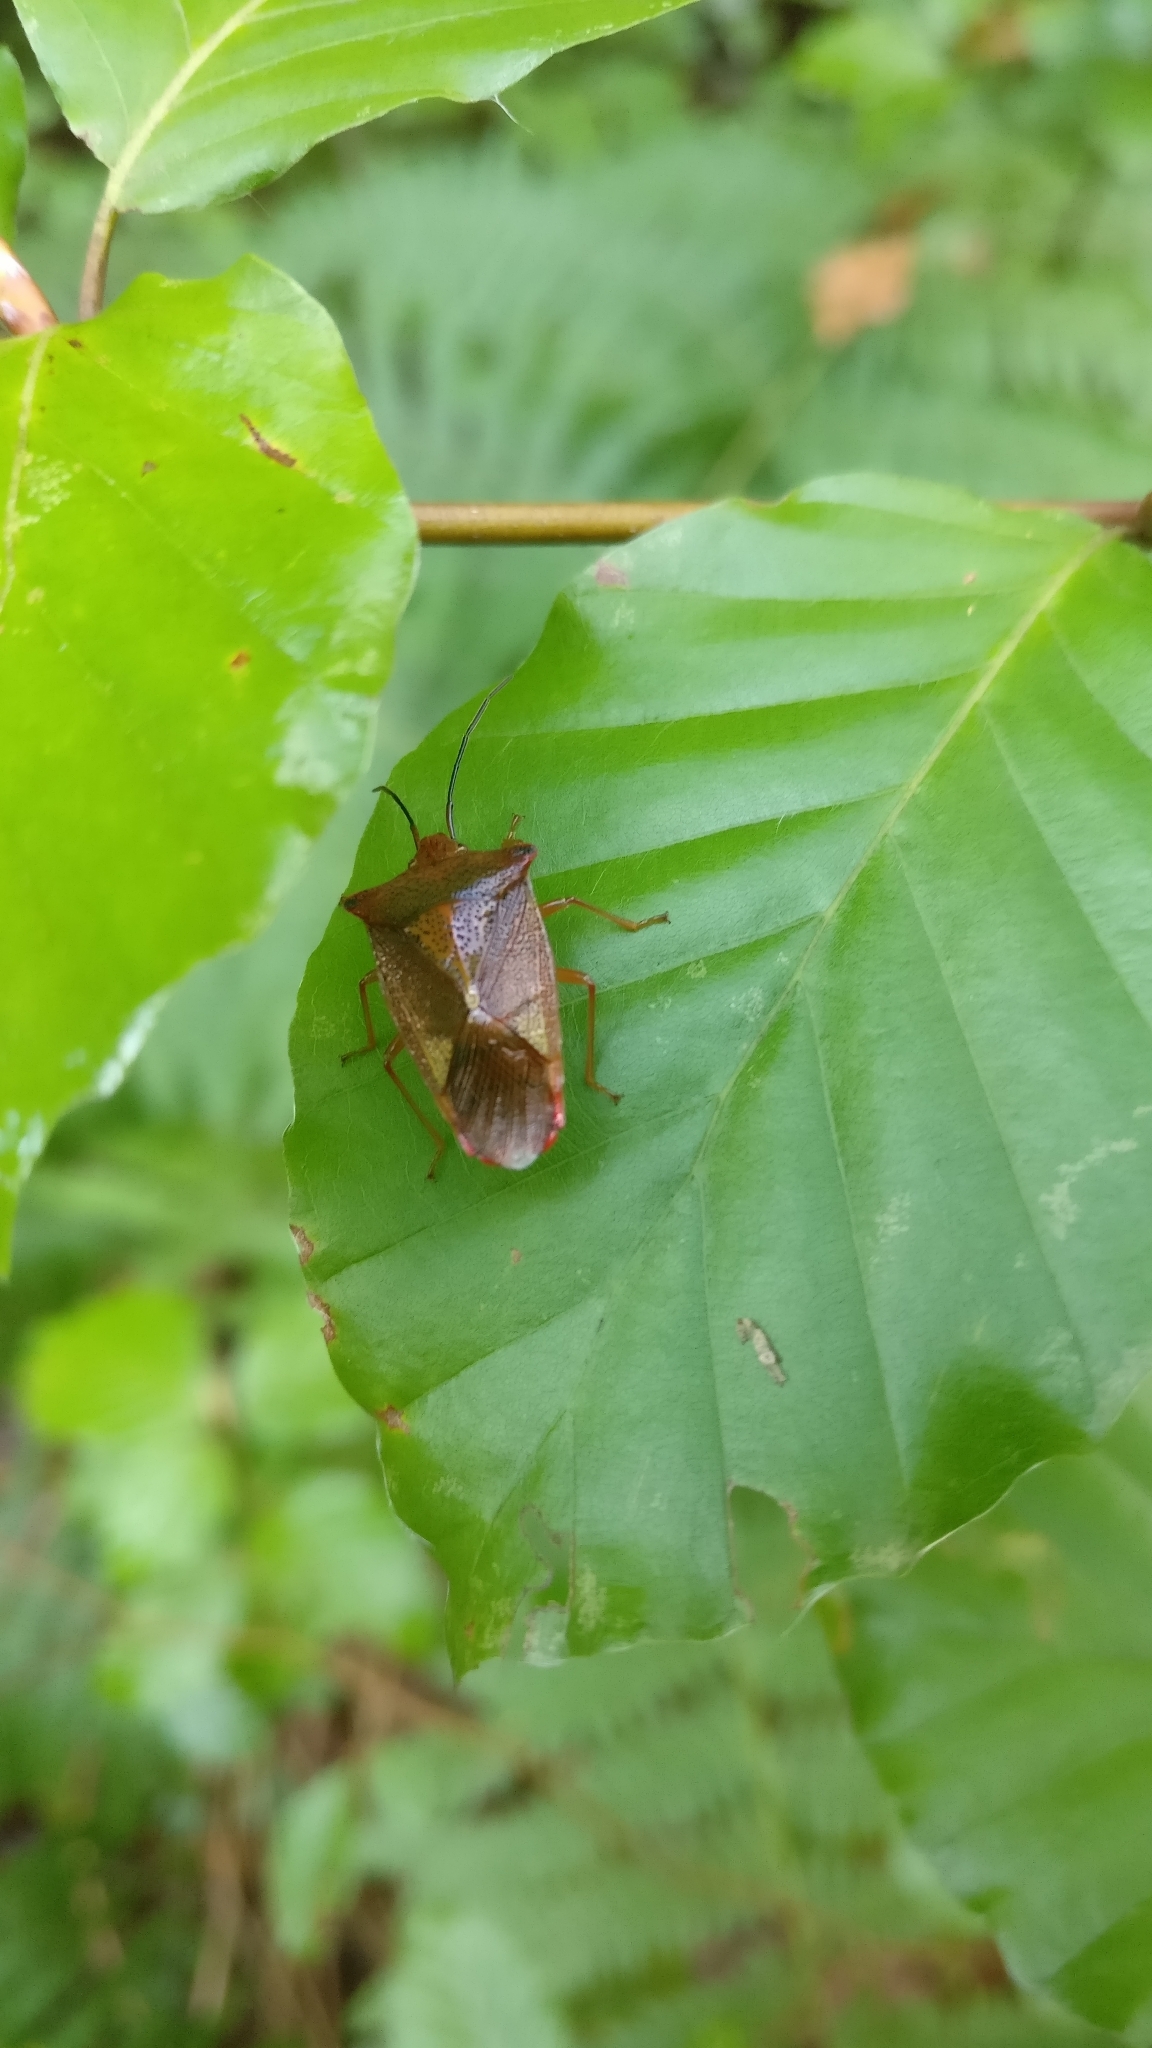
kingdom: Animalia
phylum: Arthropoda
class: Insecta
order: Hemiptera
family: Acanthosomatidae
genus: Acanthosoma
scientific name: Acanthosoma haemorrhoidale
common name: Hawthorn shieldbug
